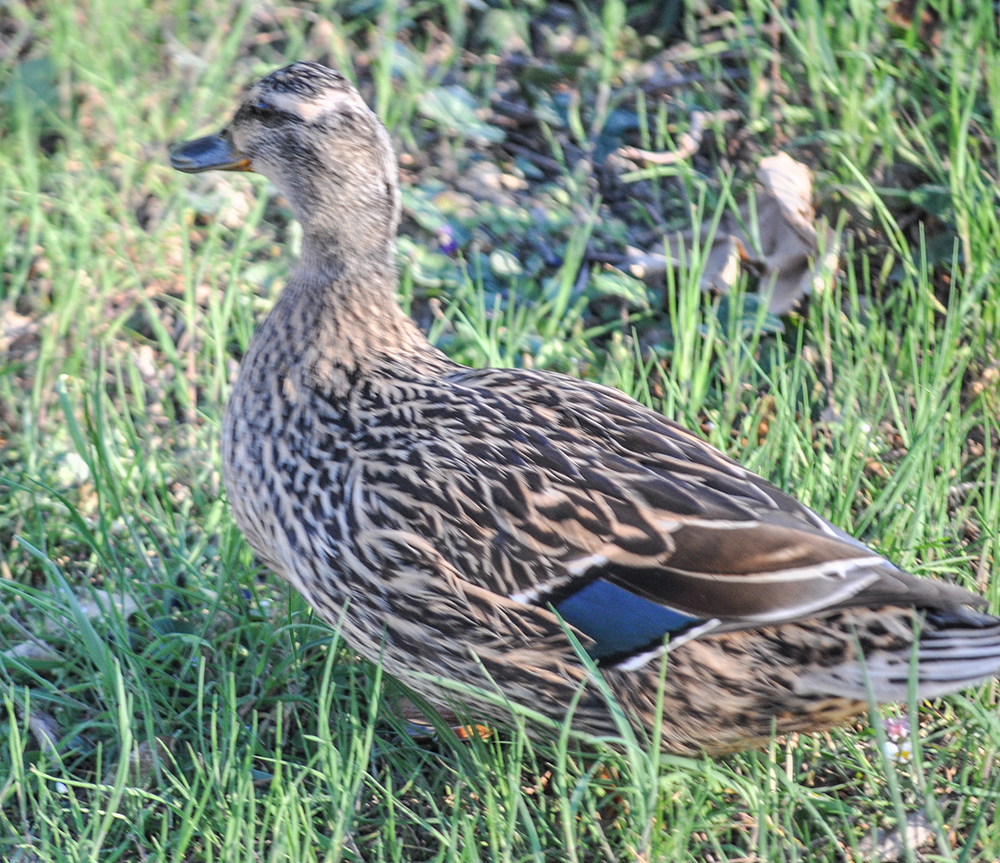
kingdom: Animalia
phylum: Chordata
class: Aves
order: Anseriformes
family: Anatidae
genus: Anas
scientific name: Anas platyrhynchos
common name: Mallard
